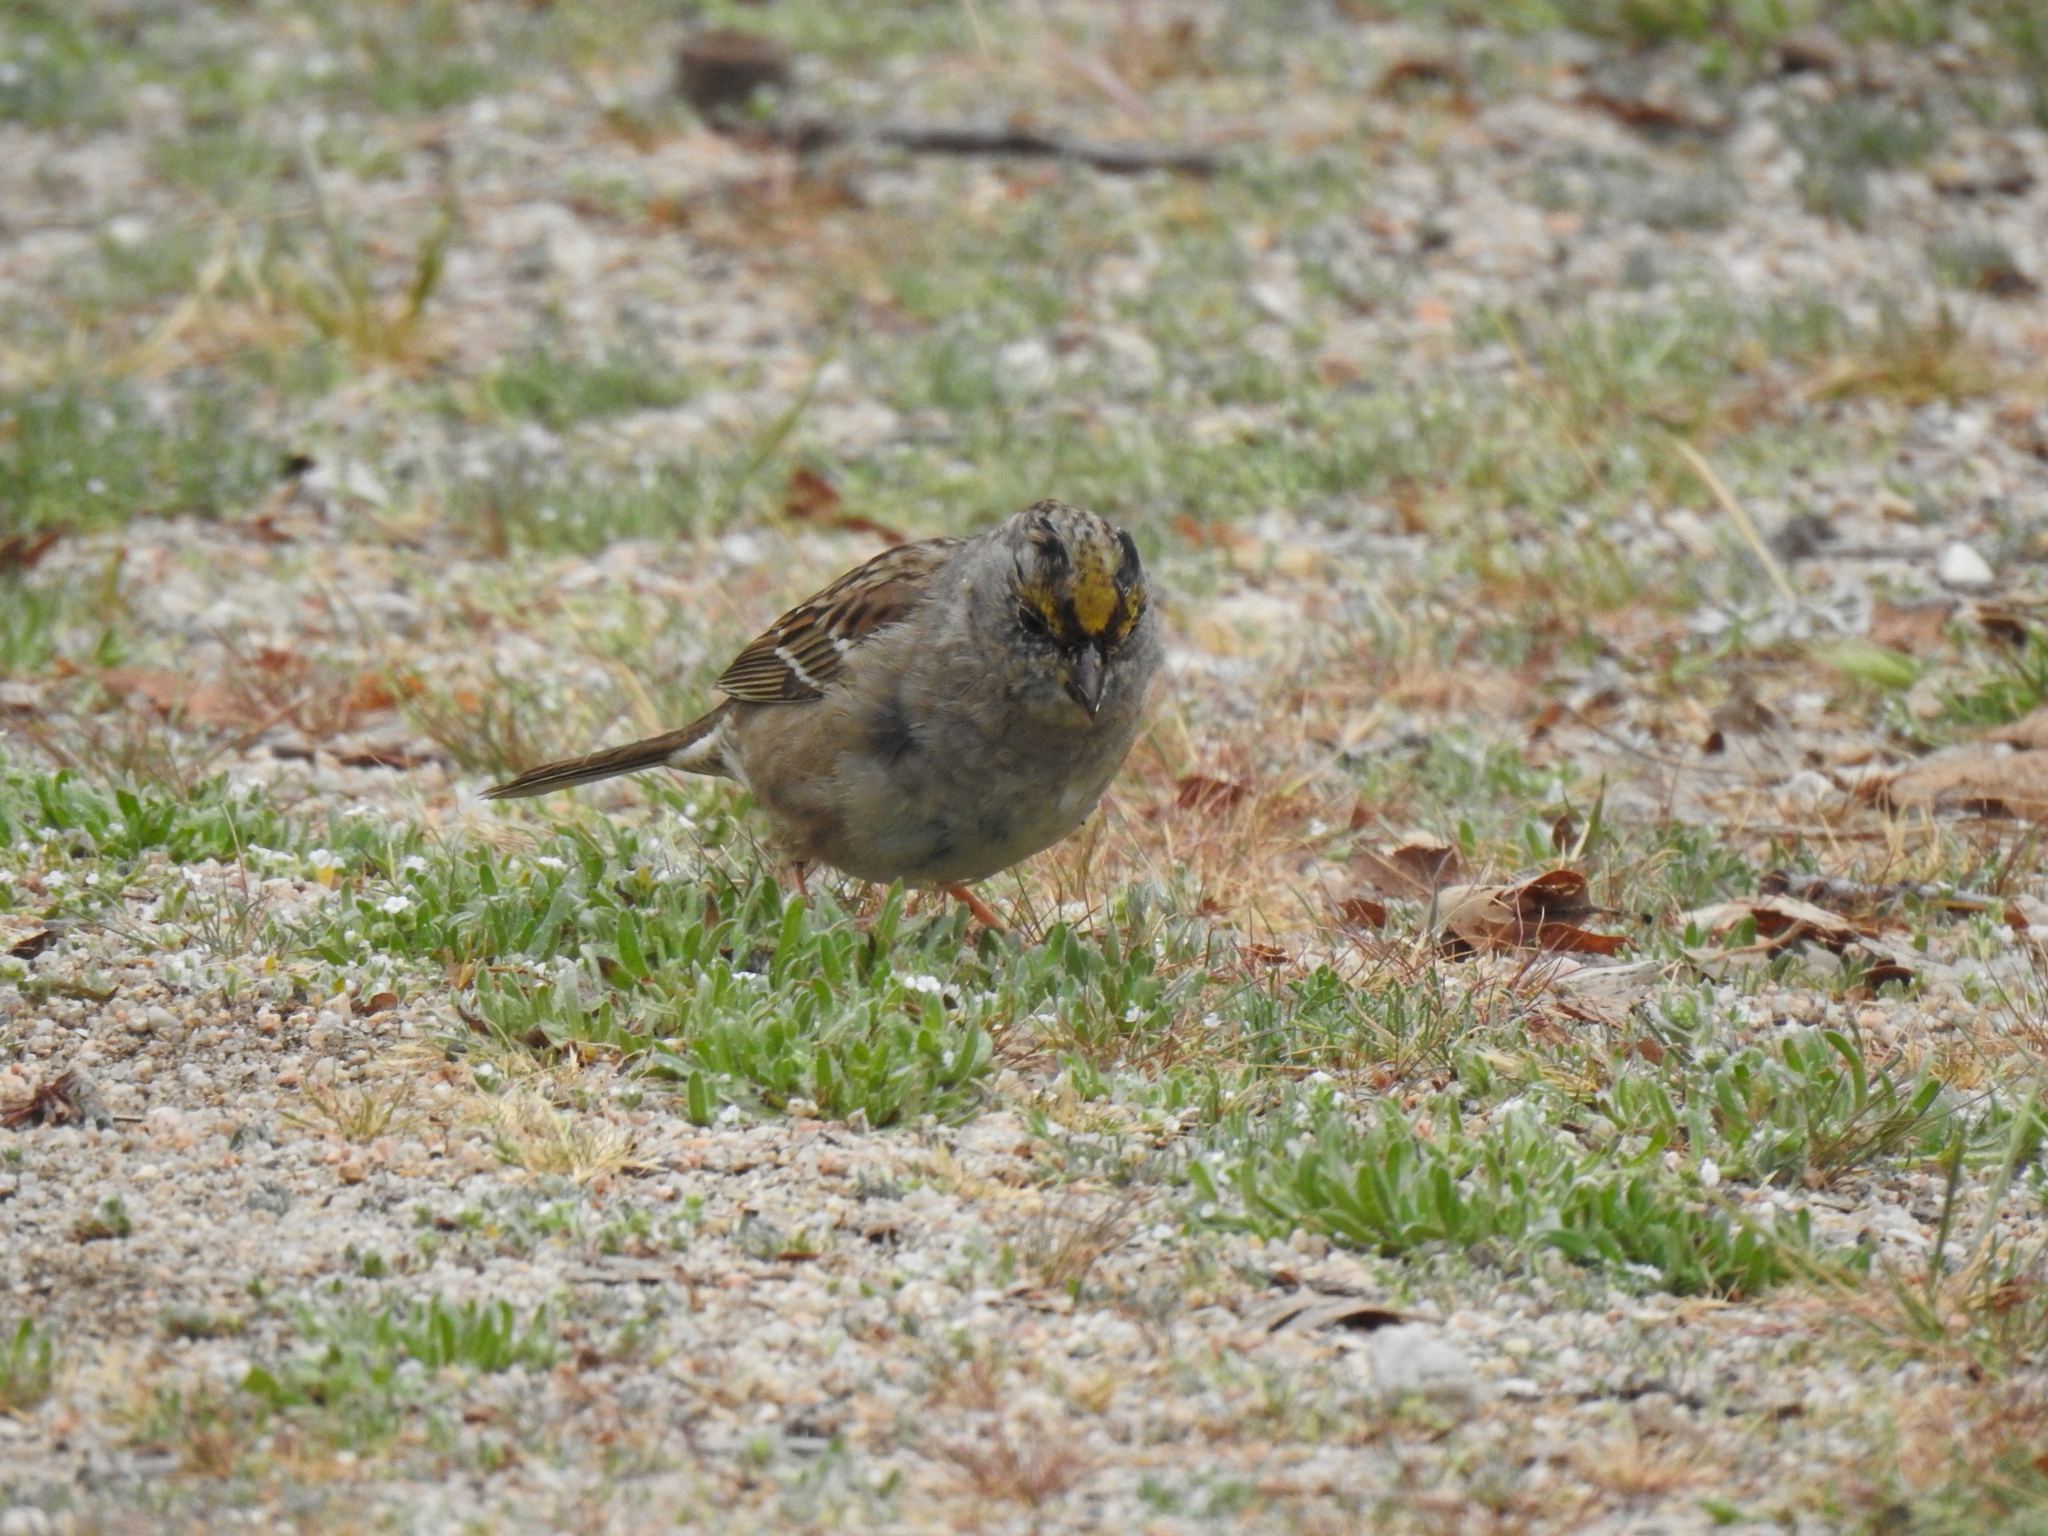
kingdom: Animalia
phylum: Chordata
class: Aves
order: Passeriformes
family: Passerellidae
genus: Zonotrichia
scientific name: Zonotrichia atricapilla
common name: Golden-crowned sparrow
